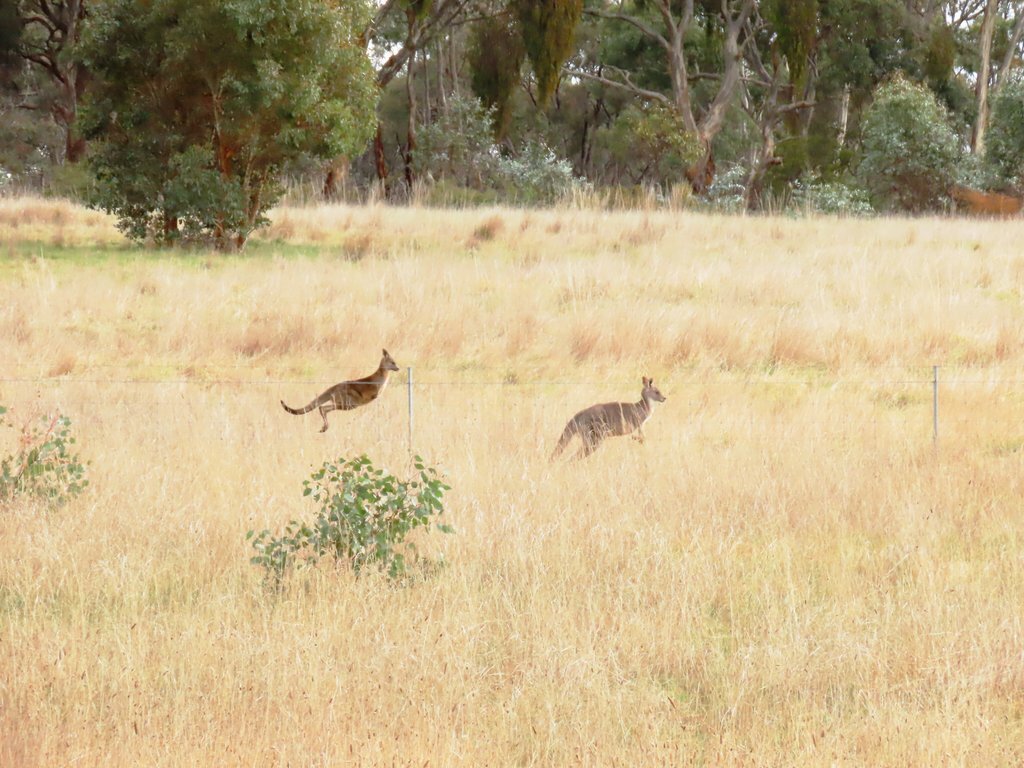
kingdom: Animalia
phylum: Chordata
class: Mammalia
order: Diprotodontia
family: Macropodidae
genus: Macropus
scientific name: Macropus giganteus
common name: Eastern grey kangaroo
